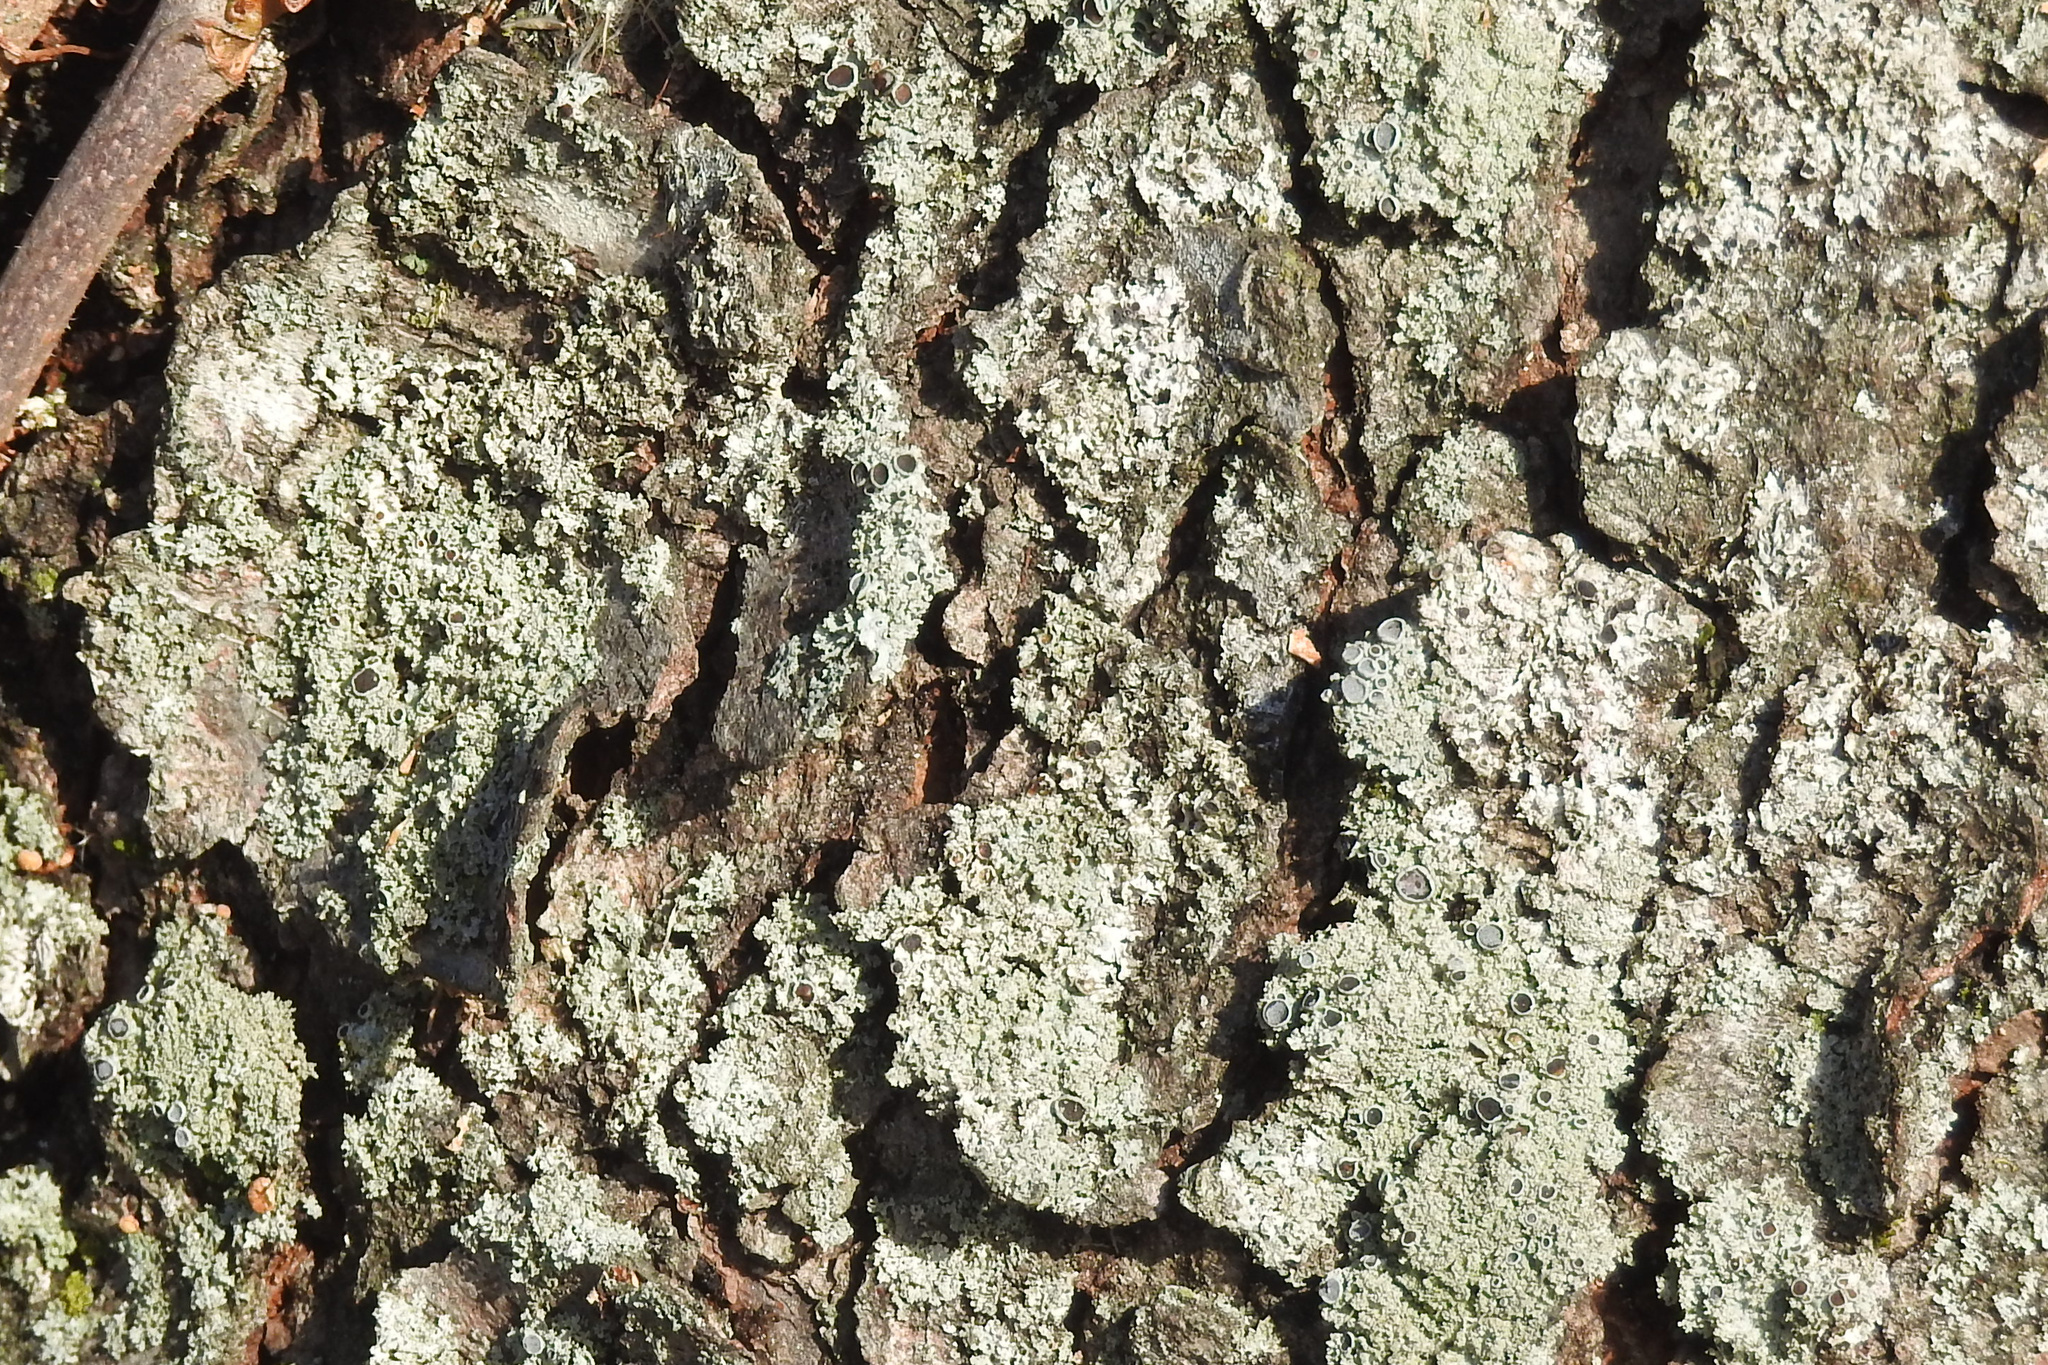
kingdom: Fungi
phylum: Ascomycota
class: Lecanoromycetes
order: Caliciales
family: Physciaceae
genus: Physcia
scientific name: Physcia millegrana
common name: Rosette lichen
